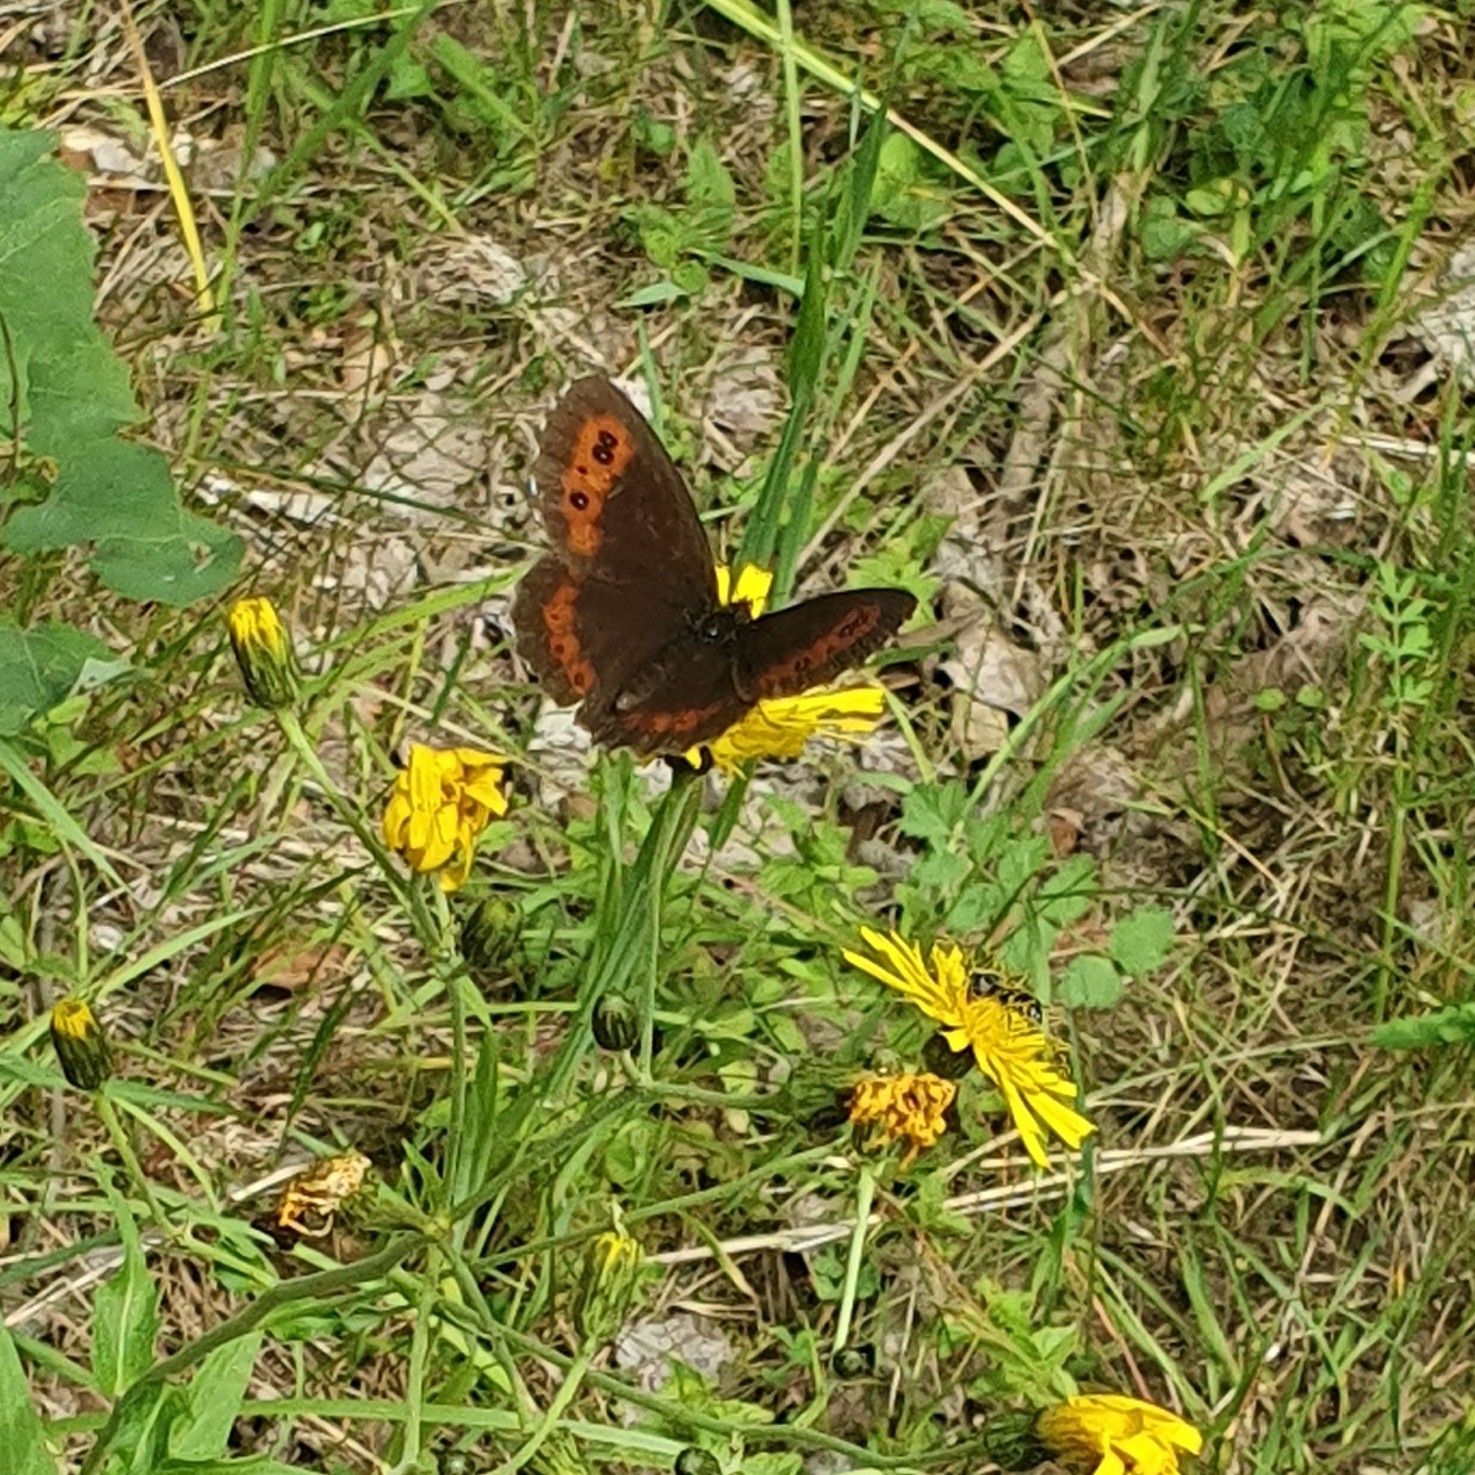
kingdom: Animalia
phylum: Arthropoda
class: Insecta
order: Lepidoptera
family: Nymphalidae
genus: Erebia
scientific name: Erebia ligea
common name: Arran brown
